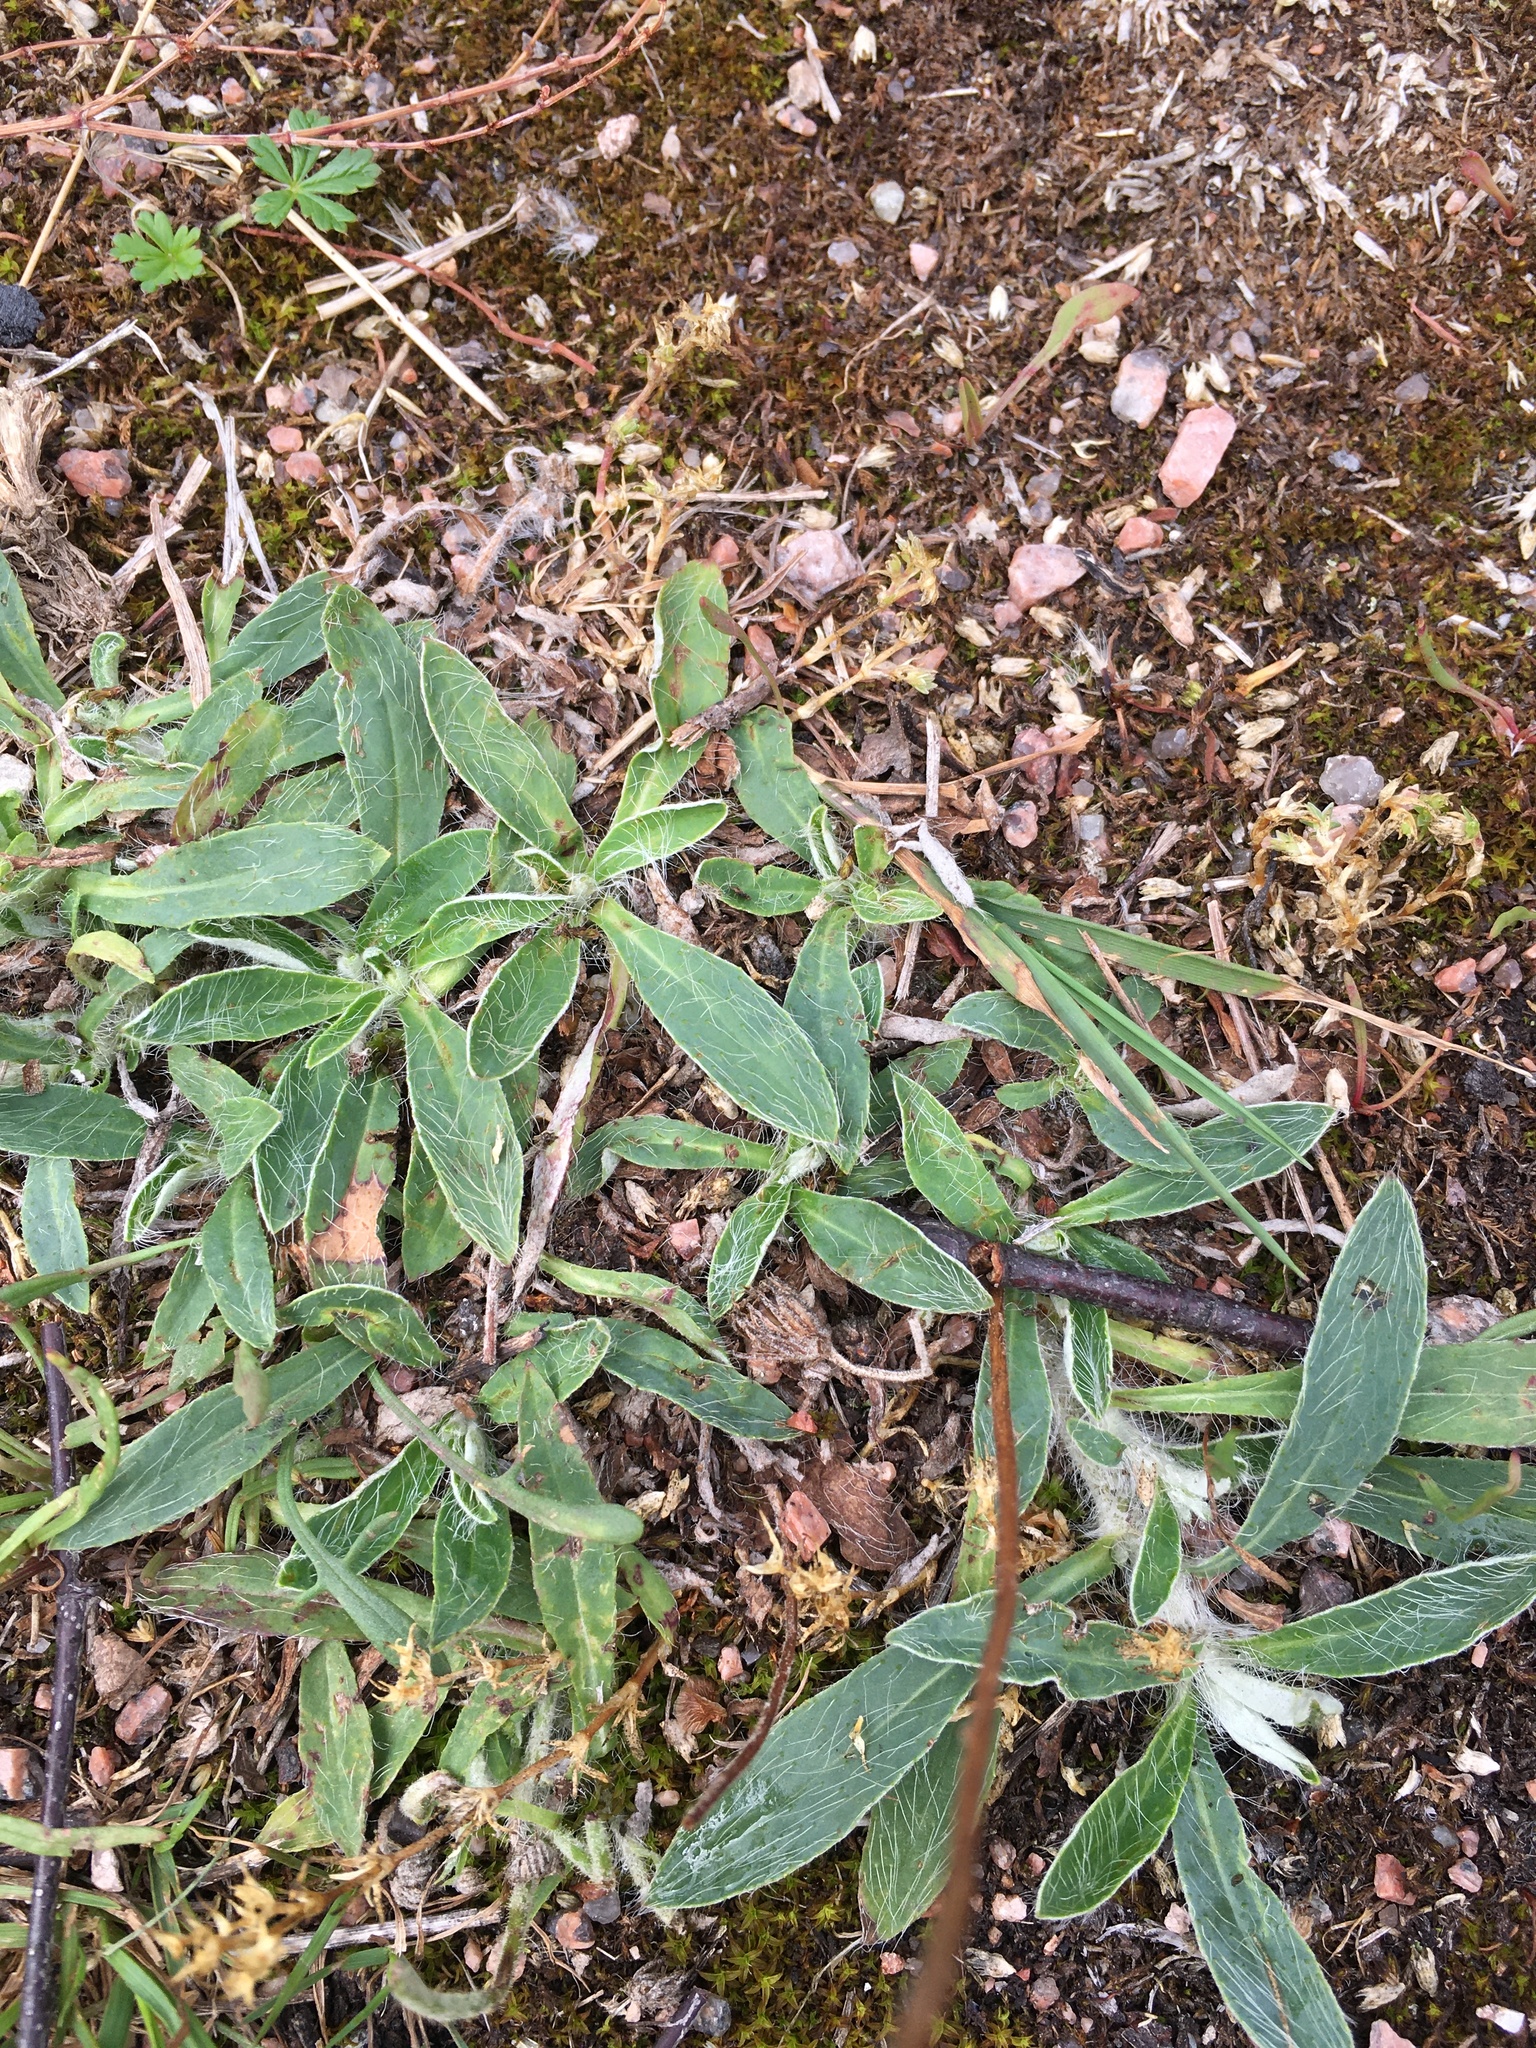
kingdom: Plantae
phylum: Tracheophyta
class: Magnoliopsida
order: Asterales
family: Asteraceae
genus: Pilosella
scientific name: Pilosella officinarum
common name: Mouse-ear hawkweed
